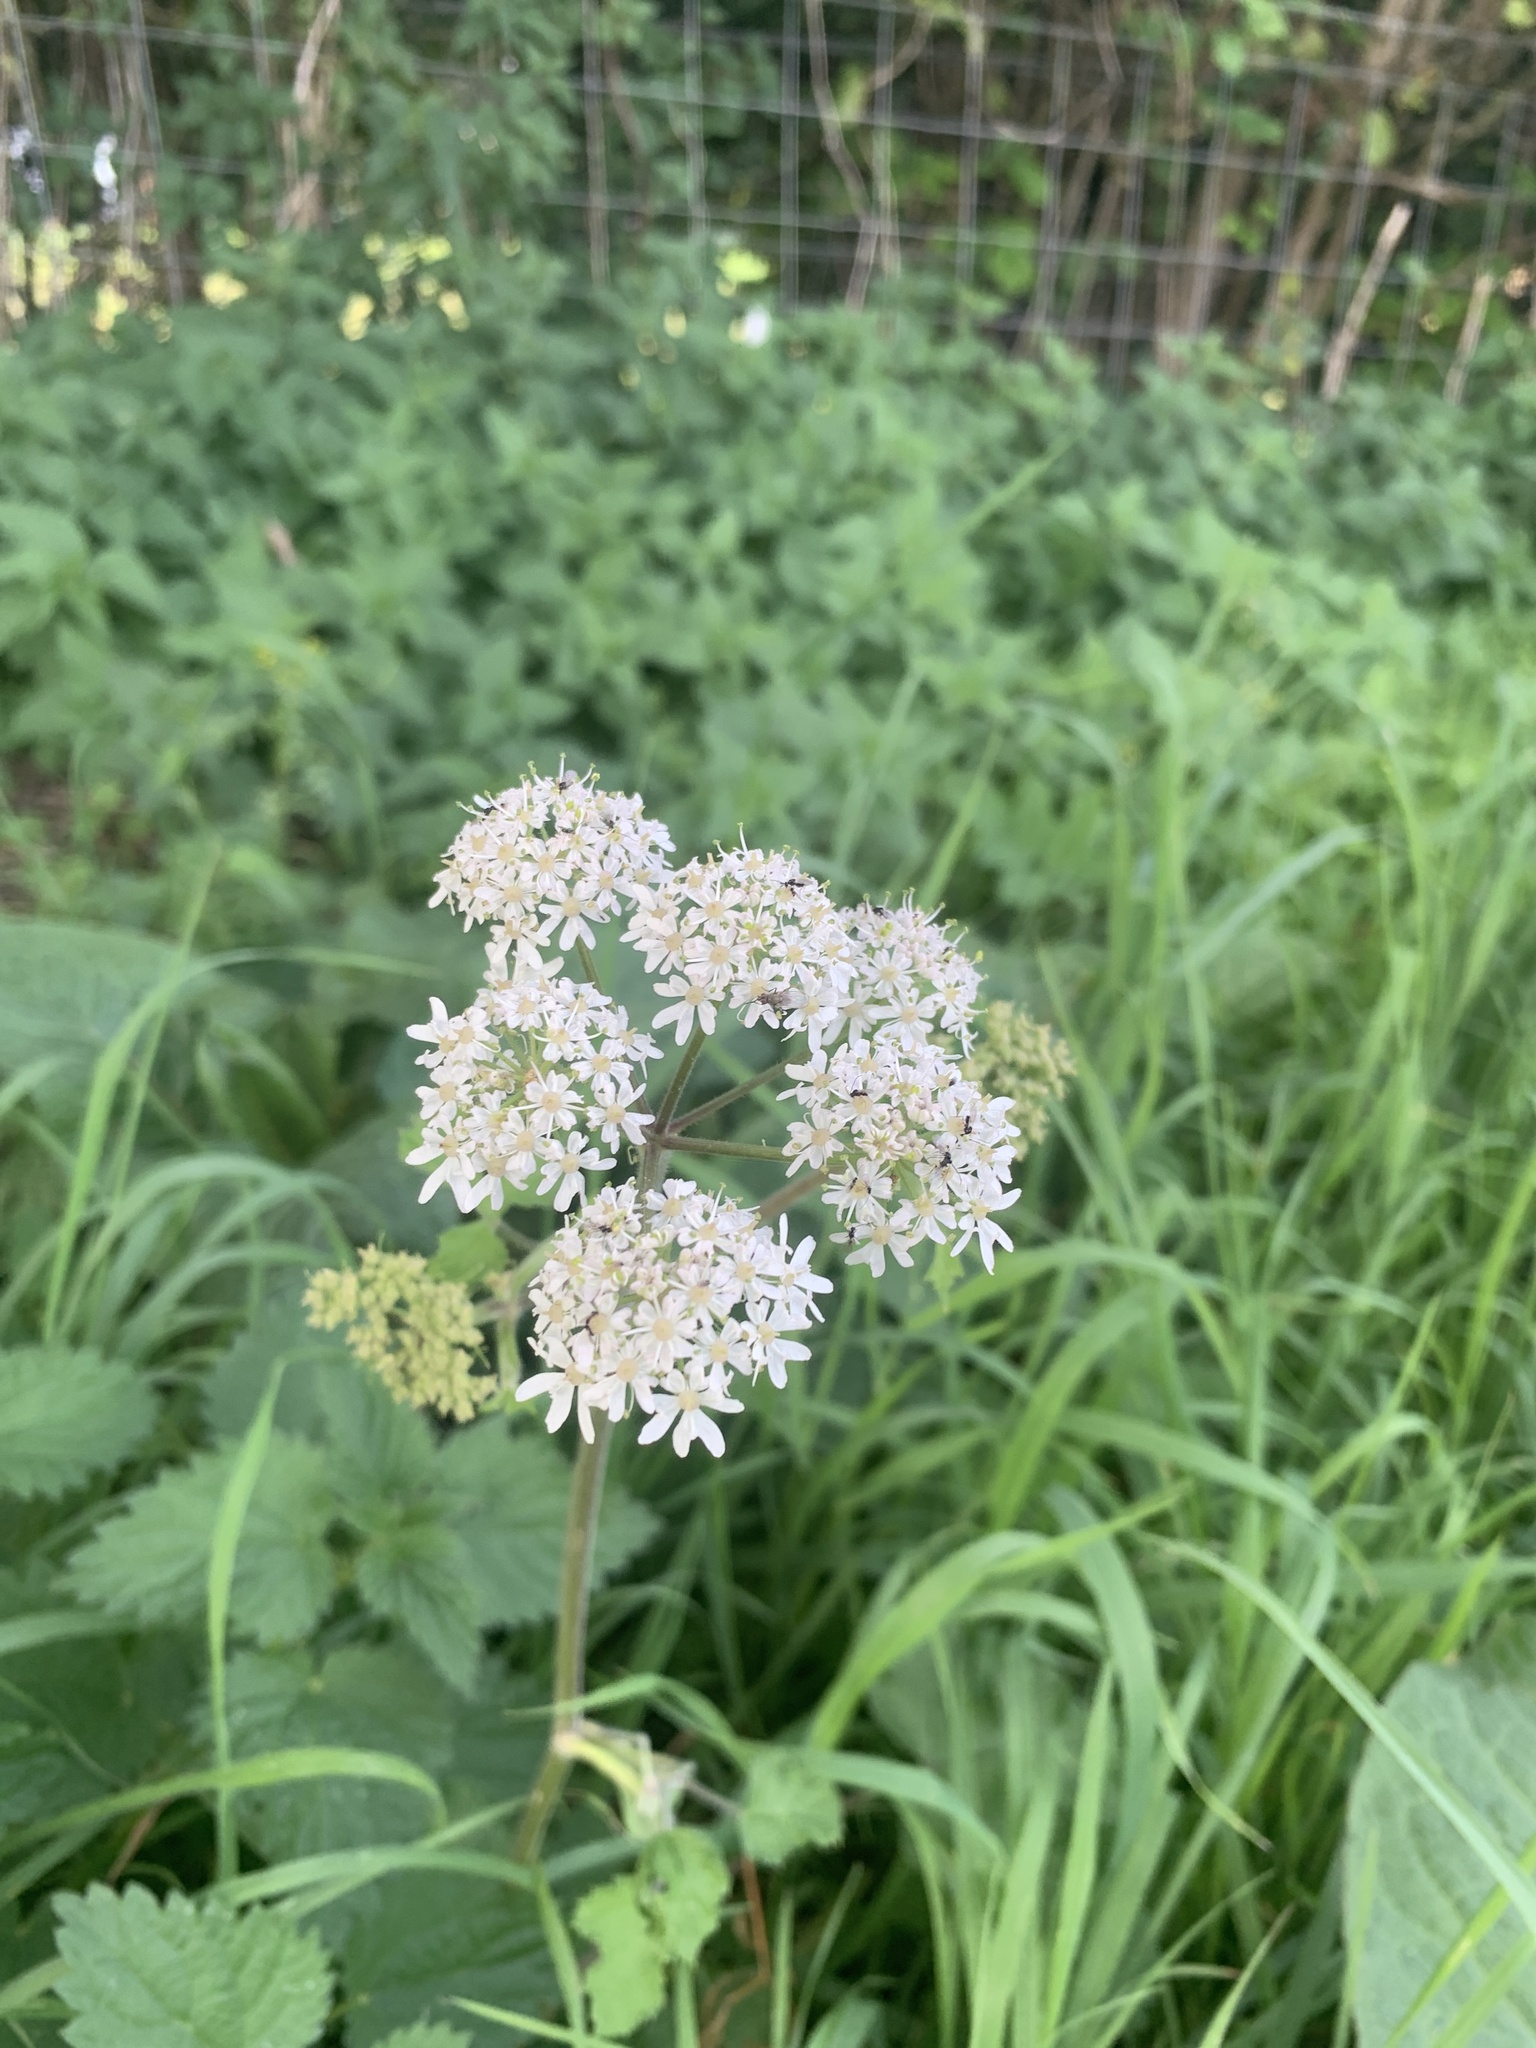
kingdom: Plantae
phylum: Tracheophyta
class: Magnoliopsida
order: Apiales
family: Apiaceae
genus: Heracleum
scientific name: Heracleum sphondylium
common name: Hogweed
